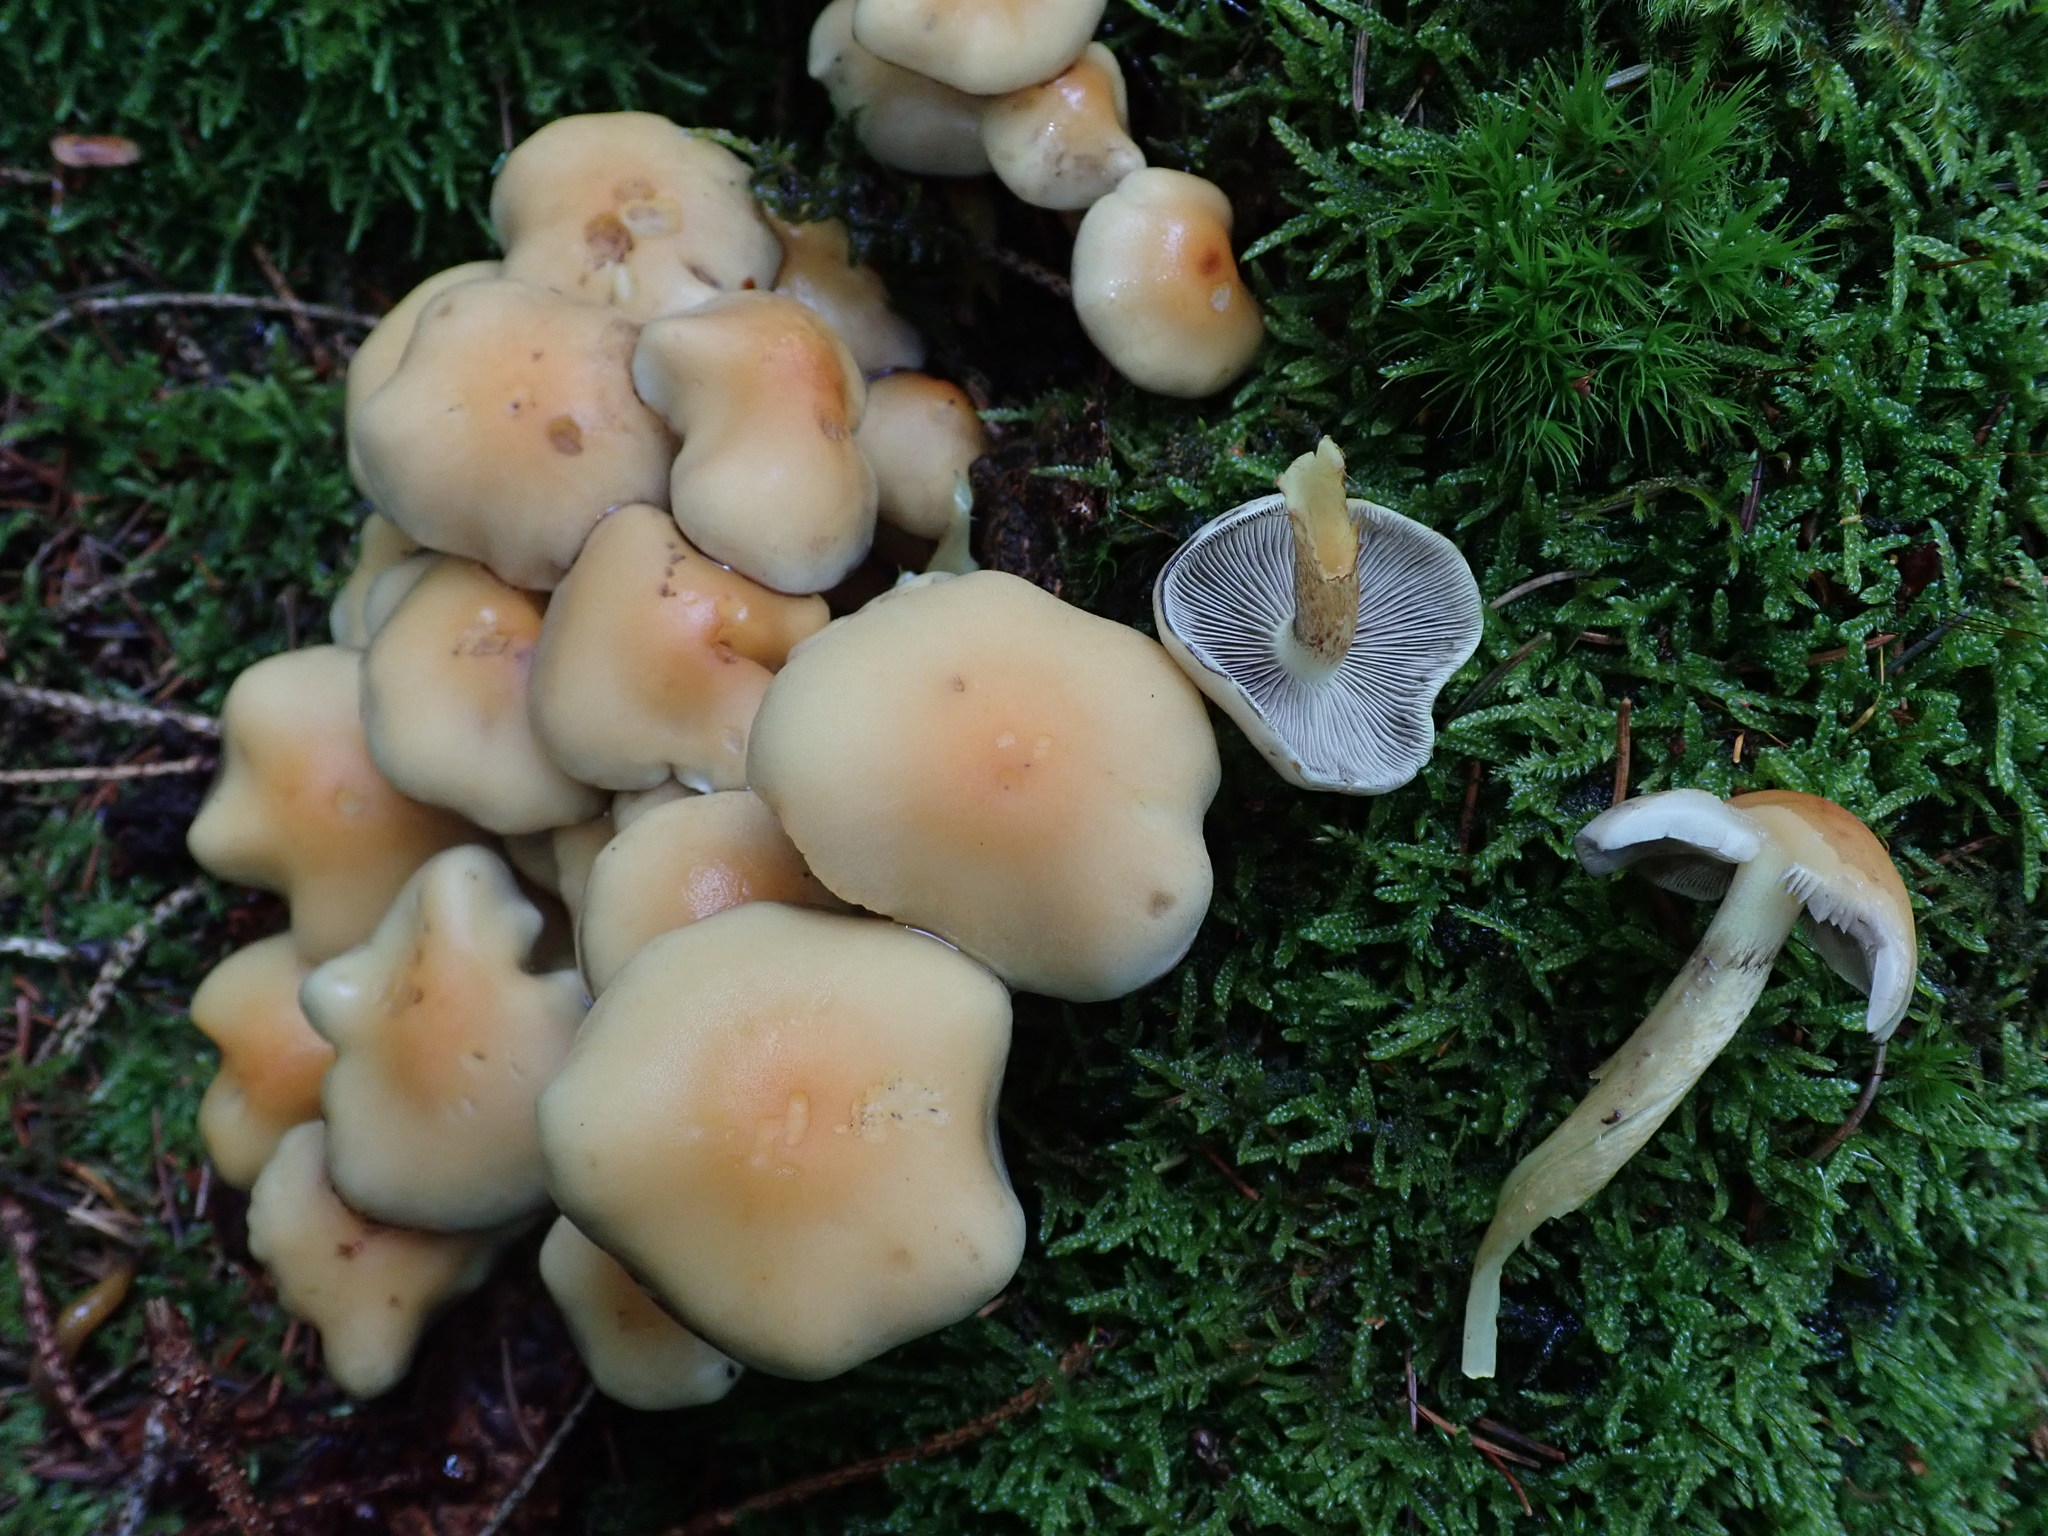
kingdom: Fungi
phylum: Basidiomycota
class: Agaricomycetes
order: Agaricales
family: Strophariaceae
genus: Hypholoma
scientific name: Hypholoma fasciculare
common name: Sulphur tuft
